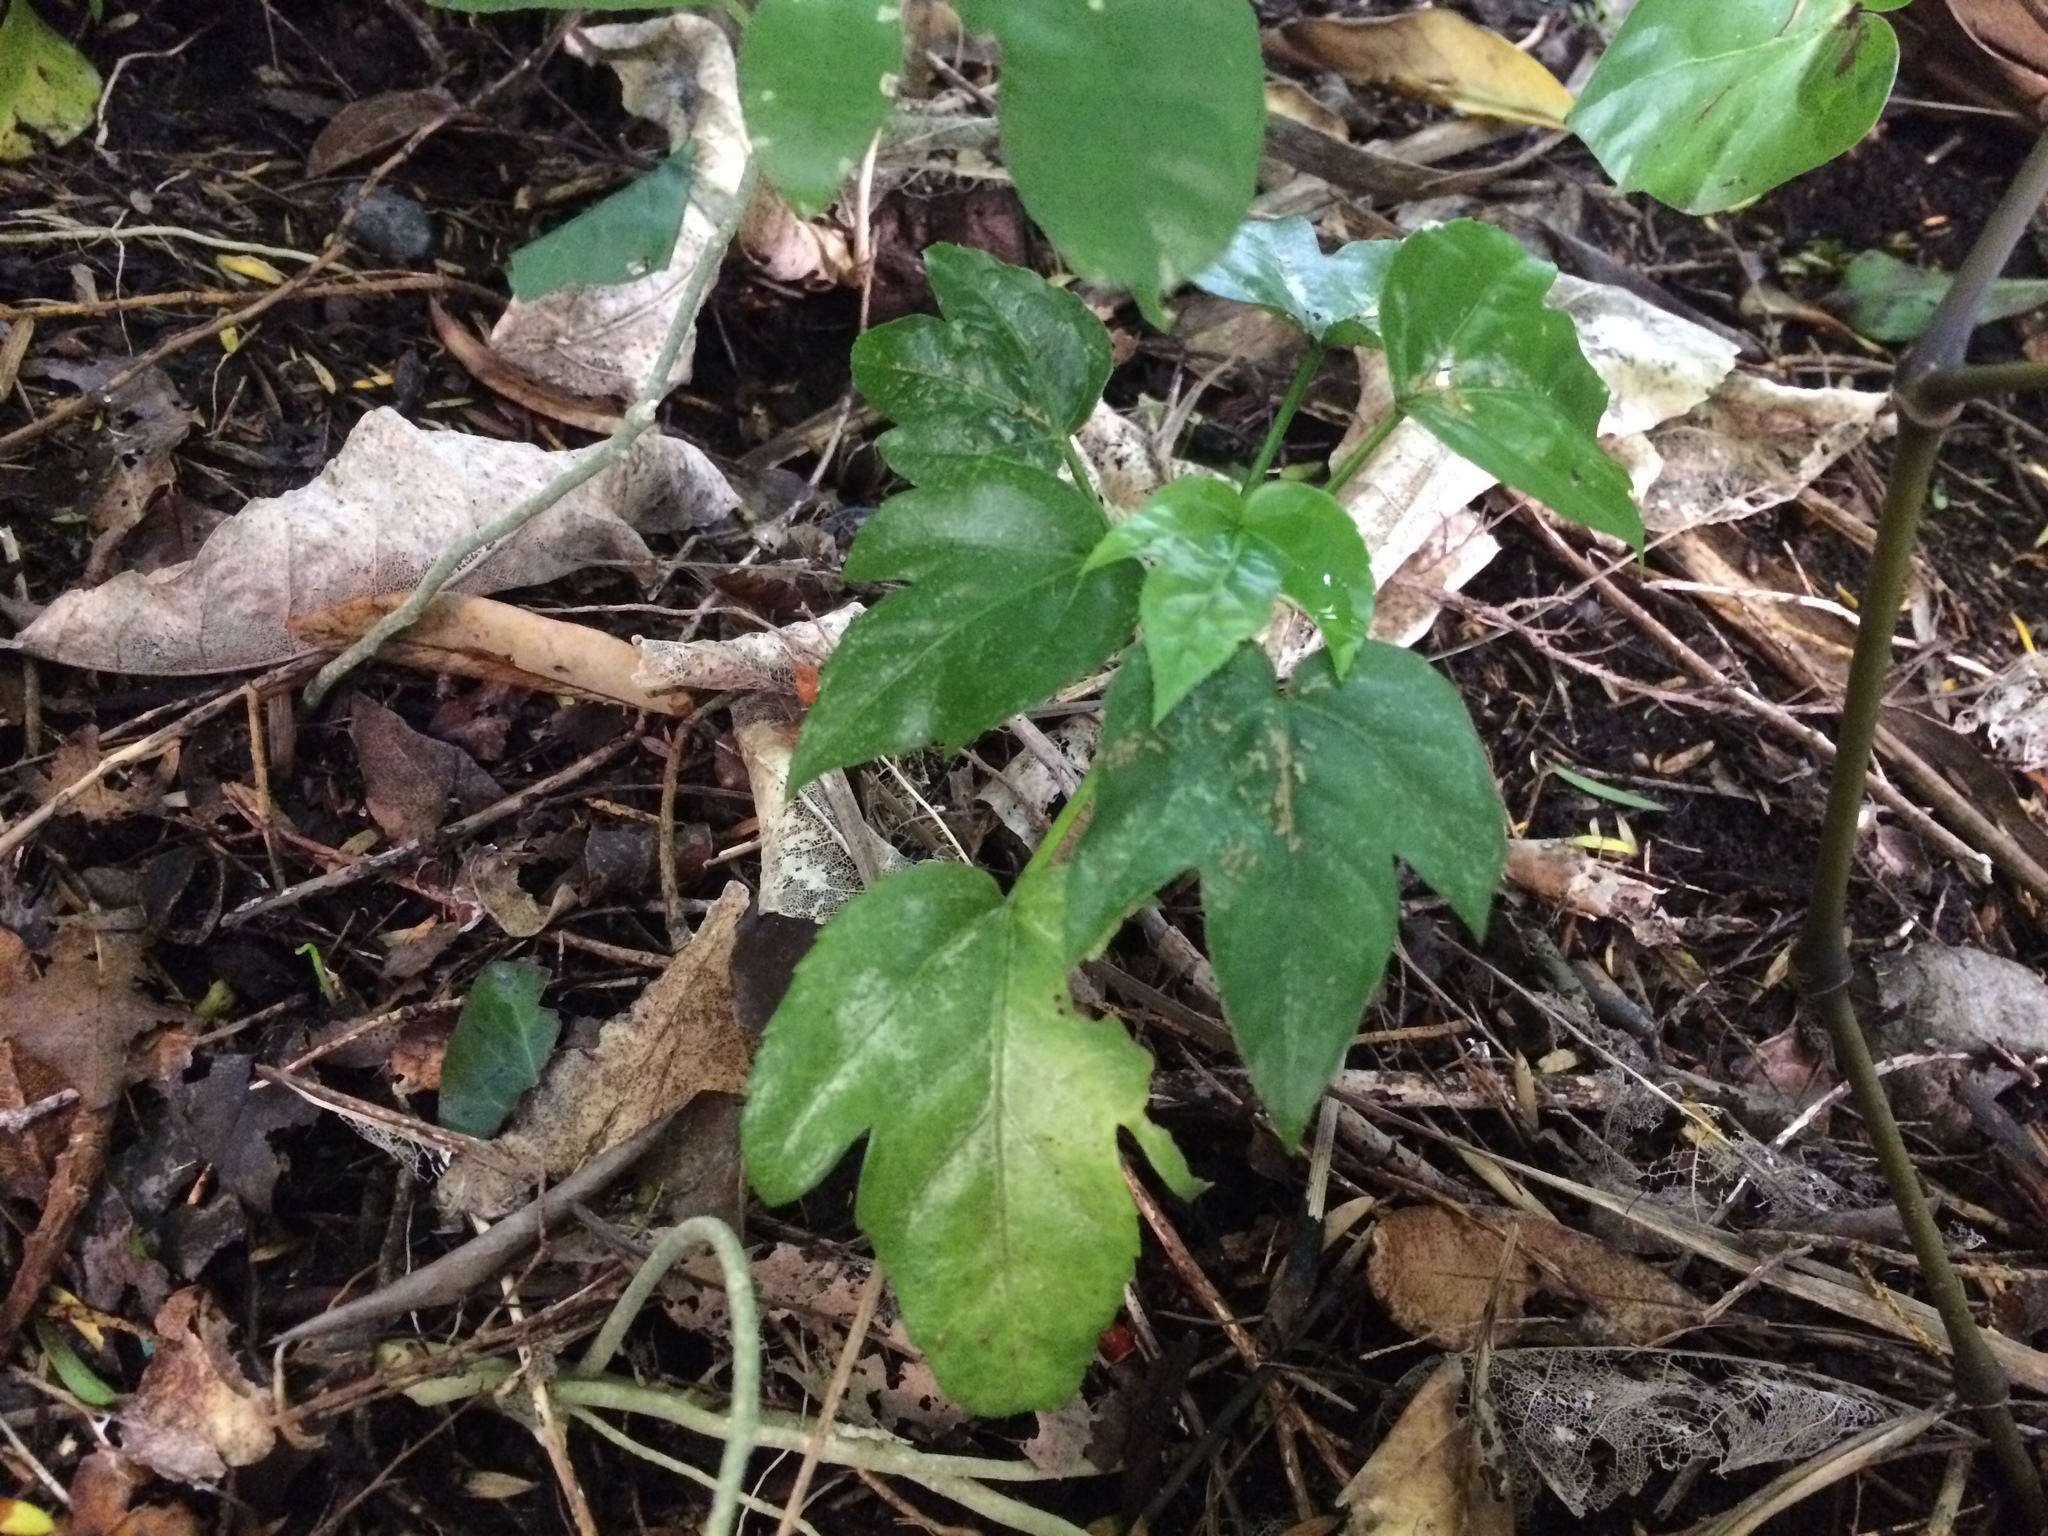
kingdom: Plantae
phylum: Tracheophyta
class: Magnoliopsida
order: Apiales
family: Araliaceae
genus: Fatsia
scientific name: Fatsia japonica
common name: Fatsia
